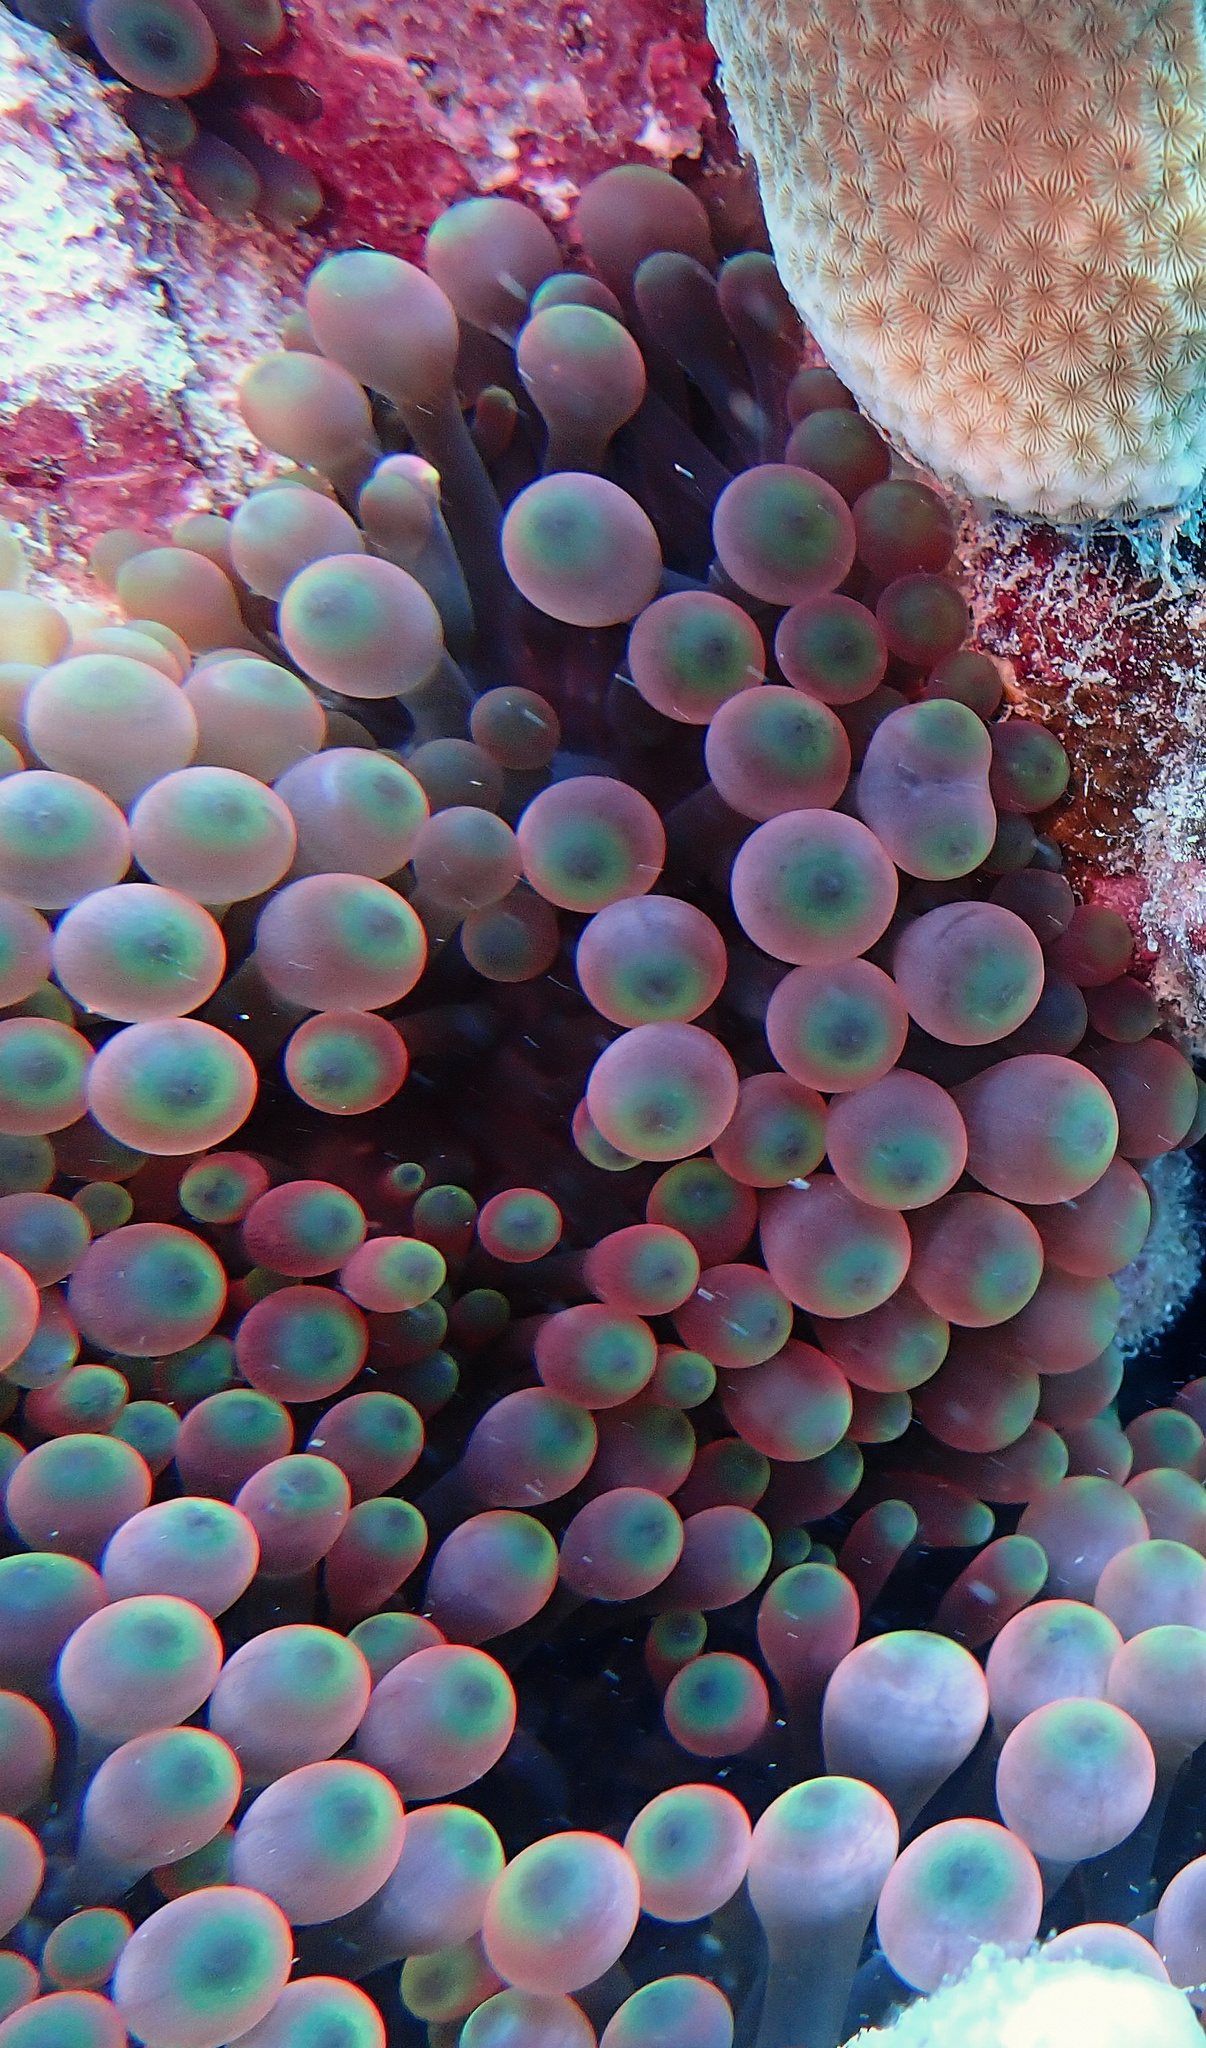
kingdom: Animalia
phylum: Cnidaria
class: Anthozoa
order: Actiniaria
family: Actiniidae
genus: Entacmaea
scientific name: Entacmaea quadricolor
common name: Bulb tentacle sea anemone
